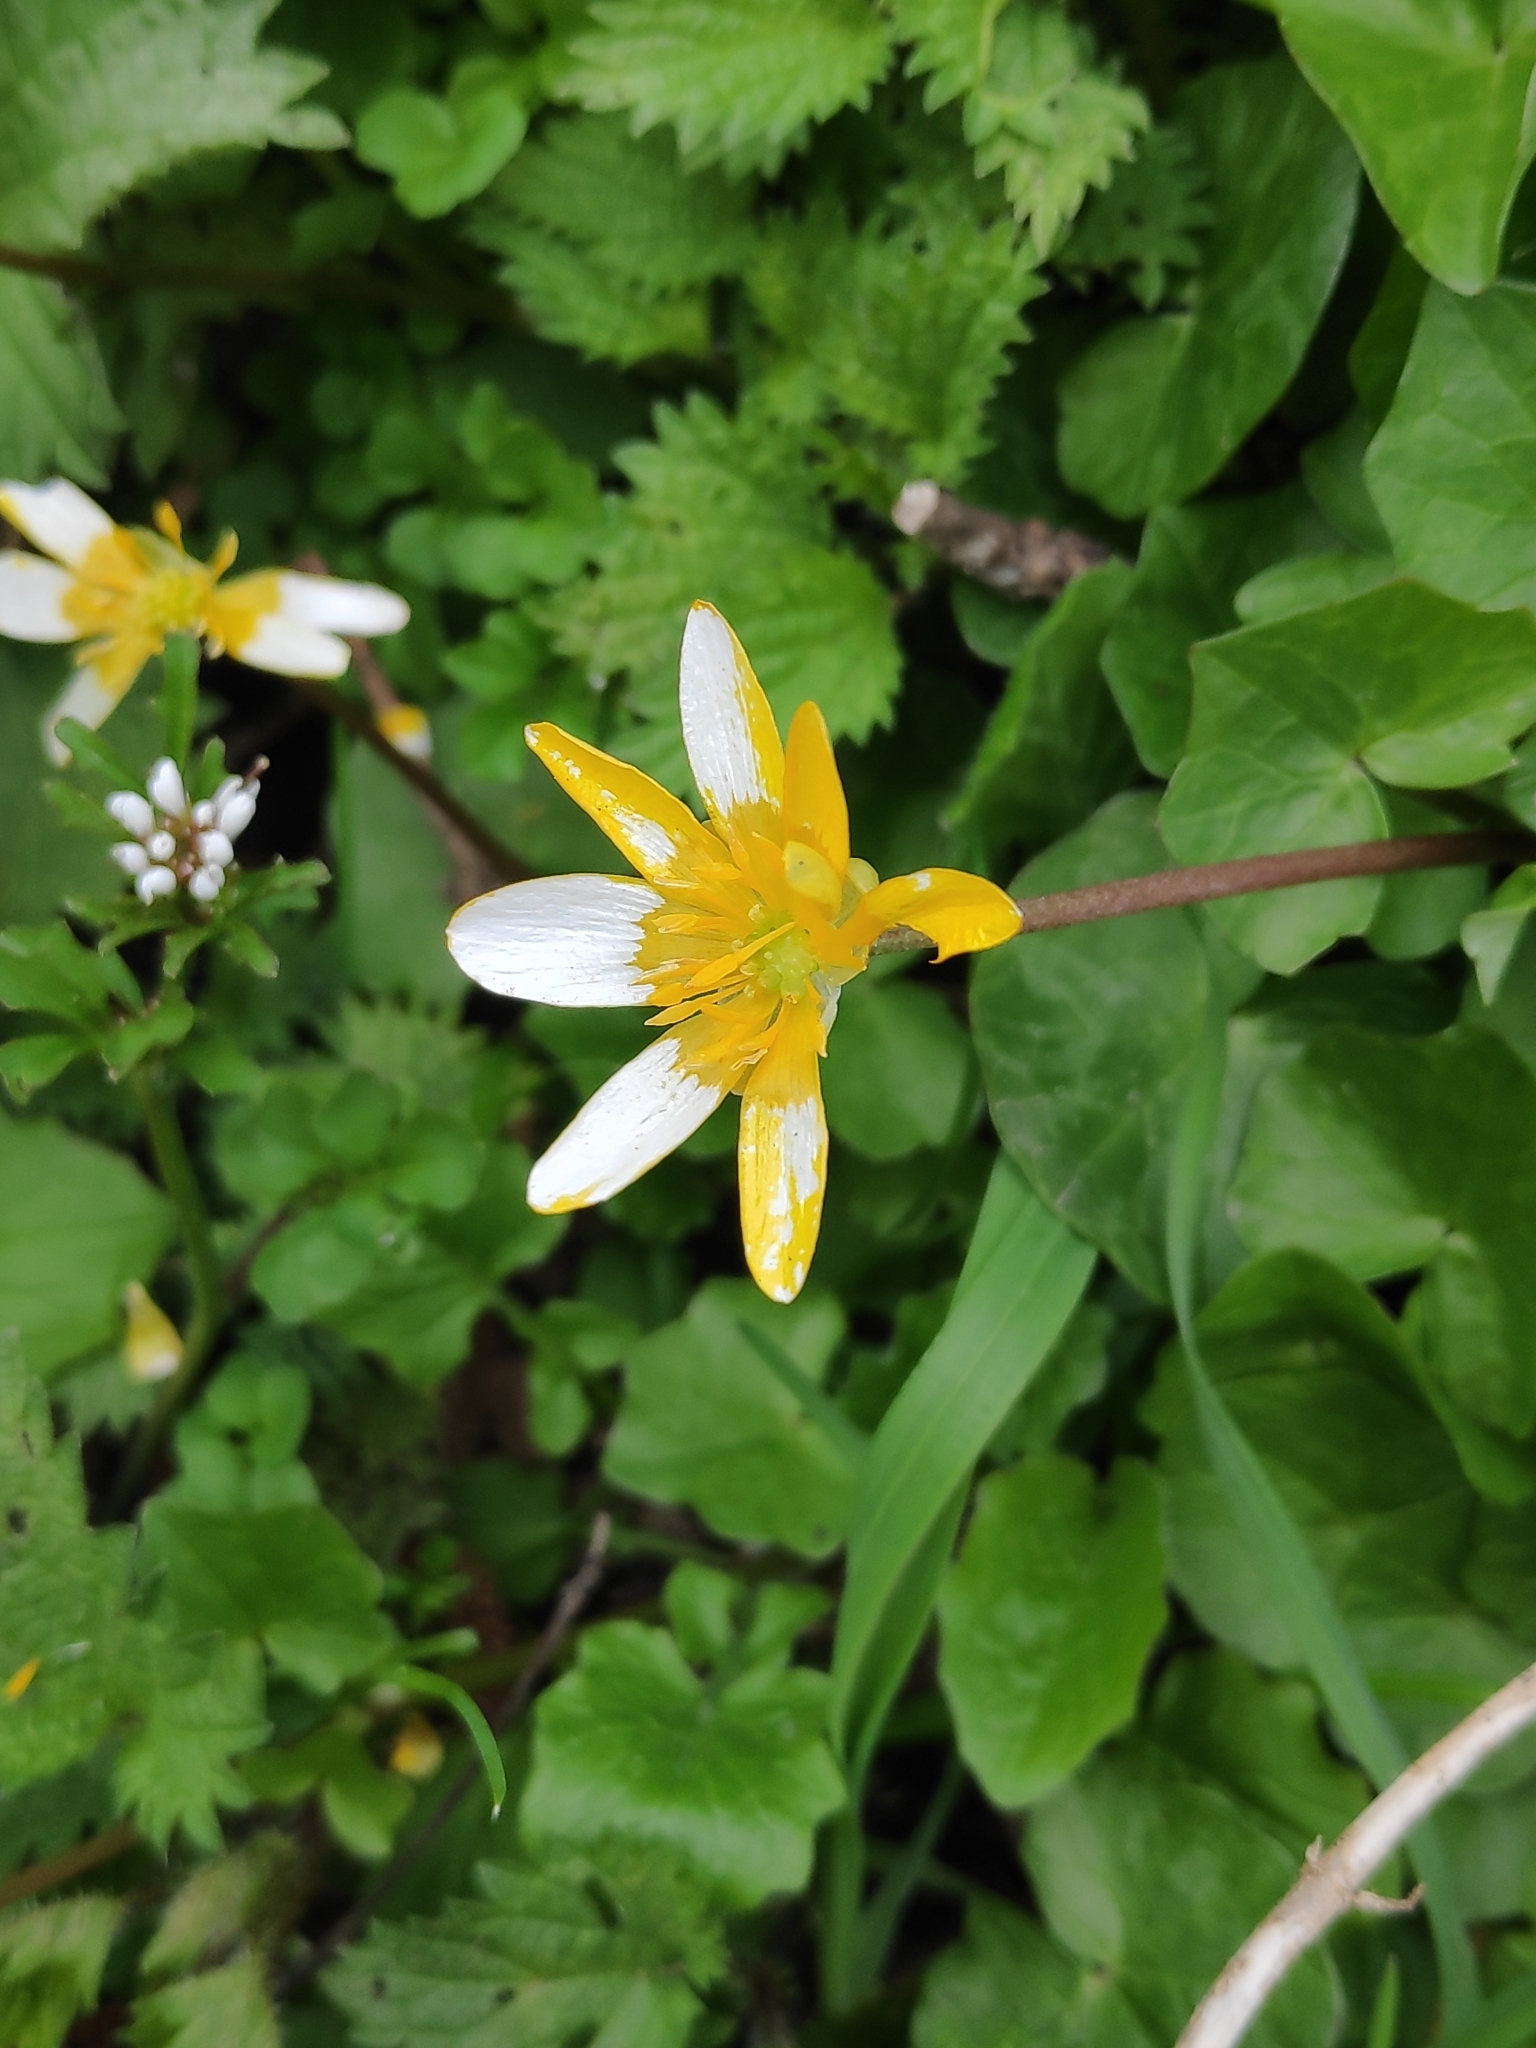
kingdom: Plantae
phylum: Tracheophyta
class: Magnoliopsida
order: Ranunculales
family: Ranunculaceae
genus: Ficaria
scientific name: Ficaria verna
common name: Lesser celandine
